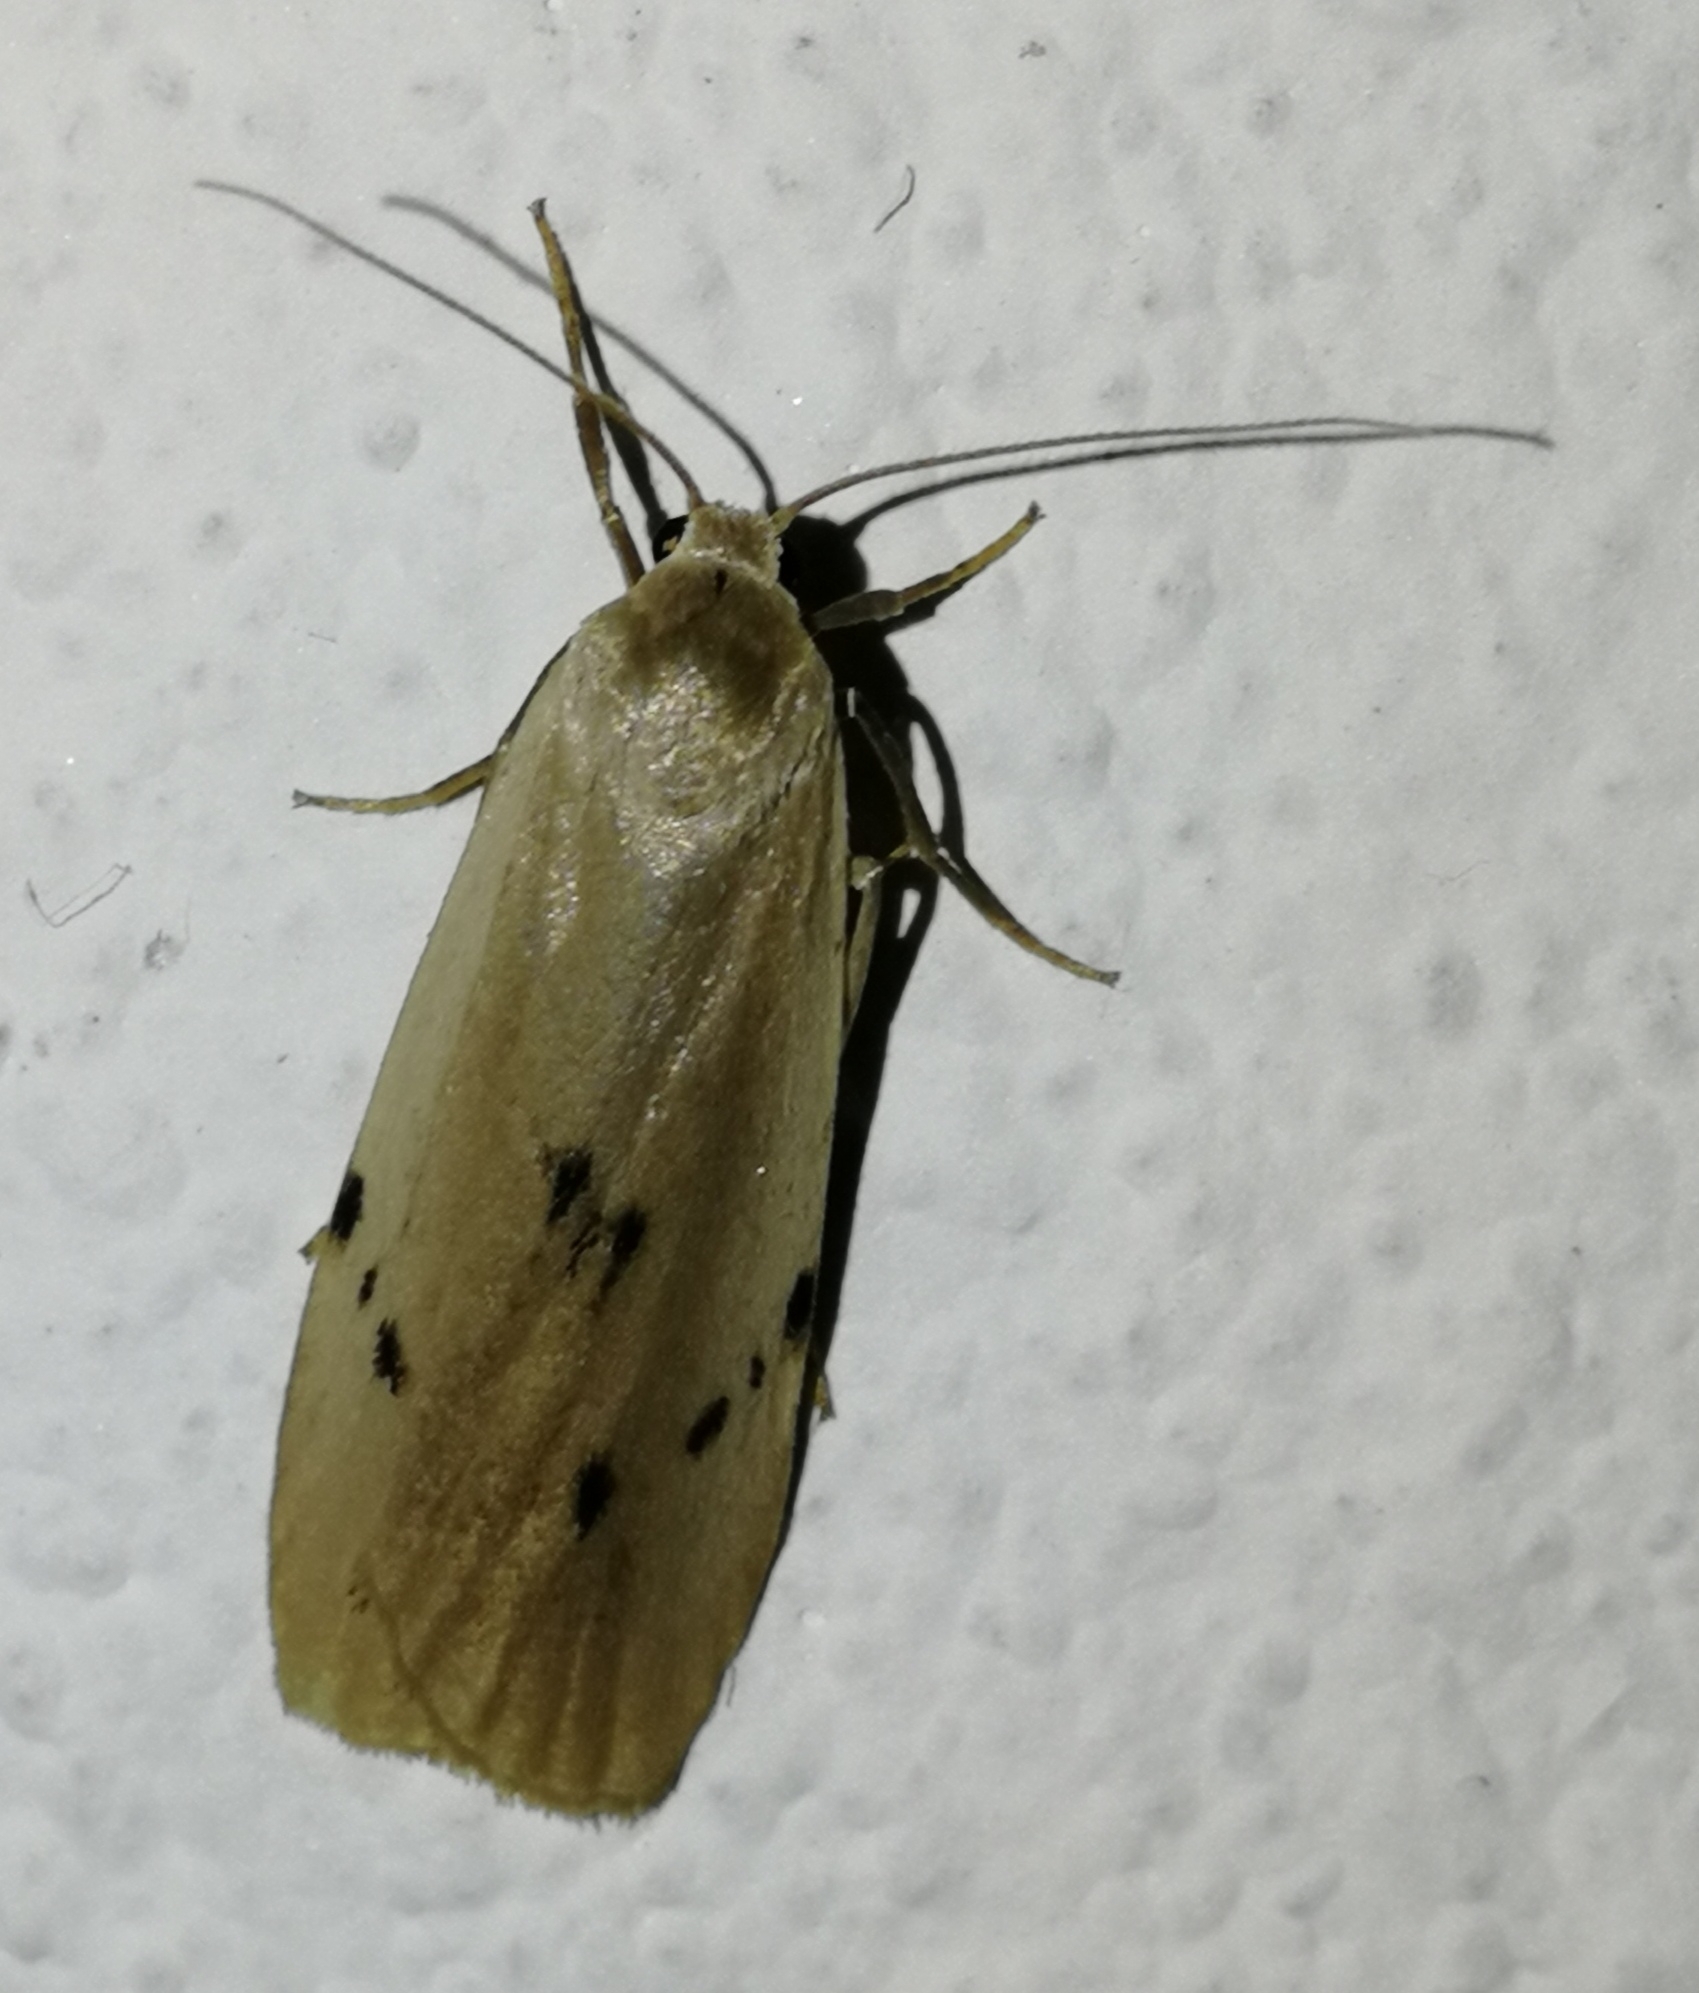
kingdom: Animalia
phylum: Arthropoda
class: Insecta
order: Lepidoptera
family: Erebidae
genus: Pelosia
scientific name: Pelosia muscerda
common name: Dotted footman
